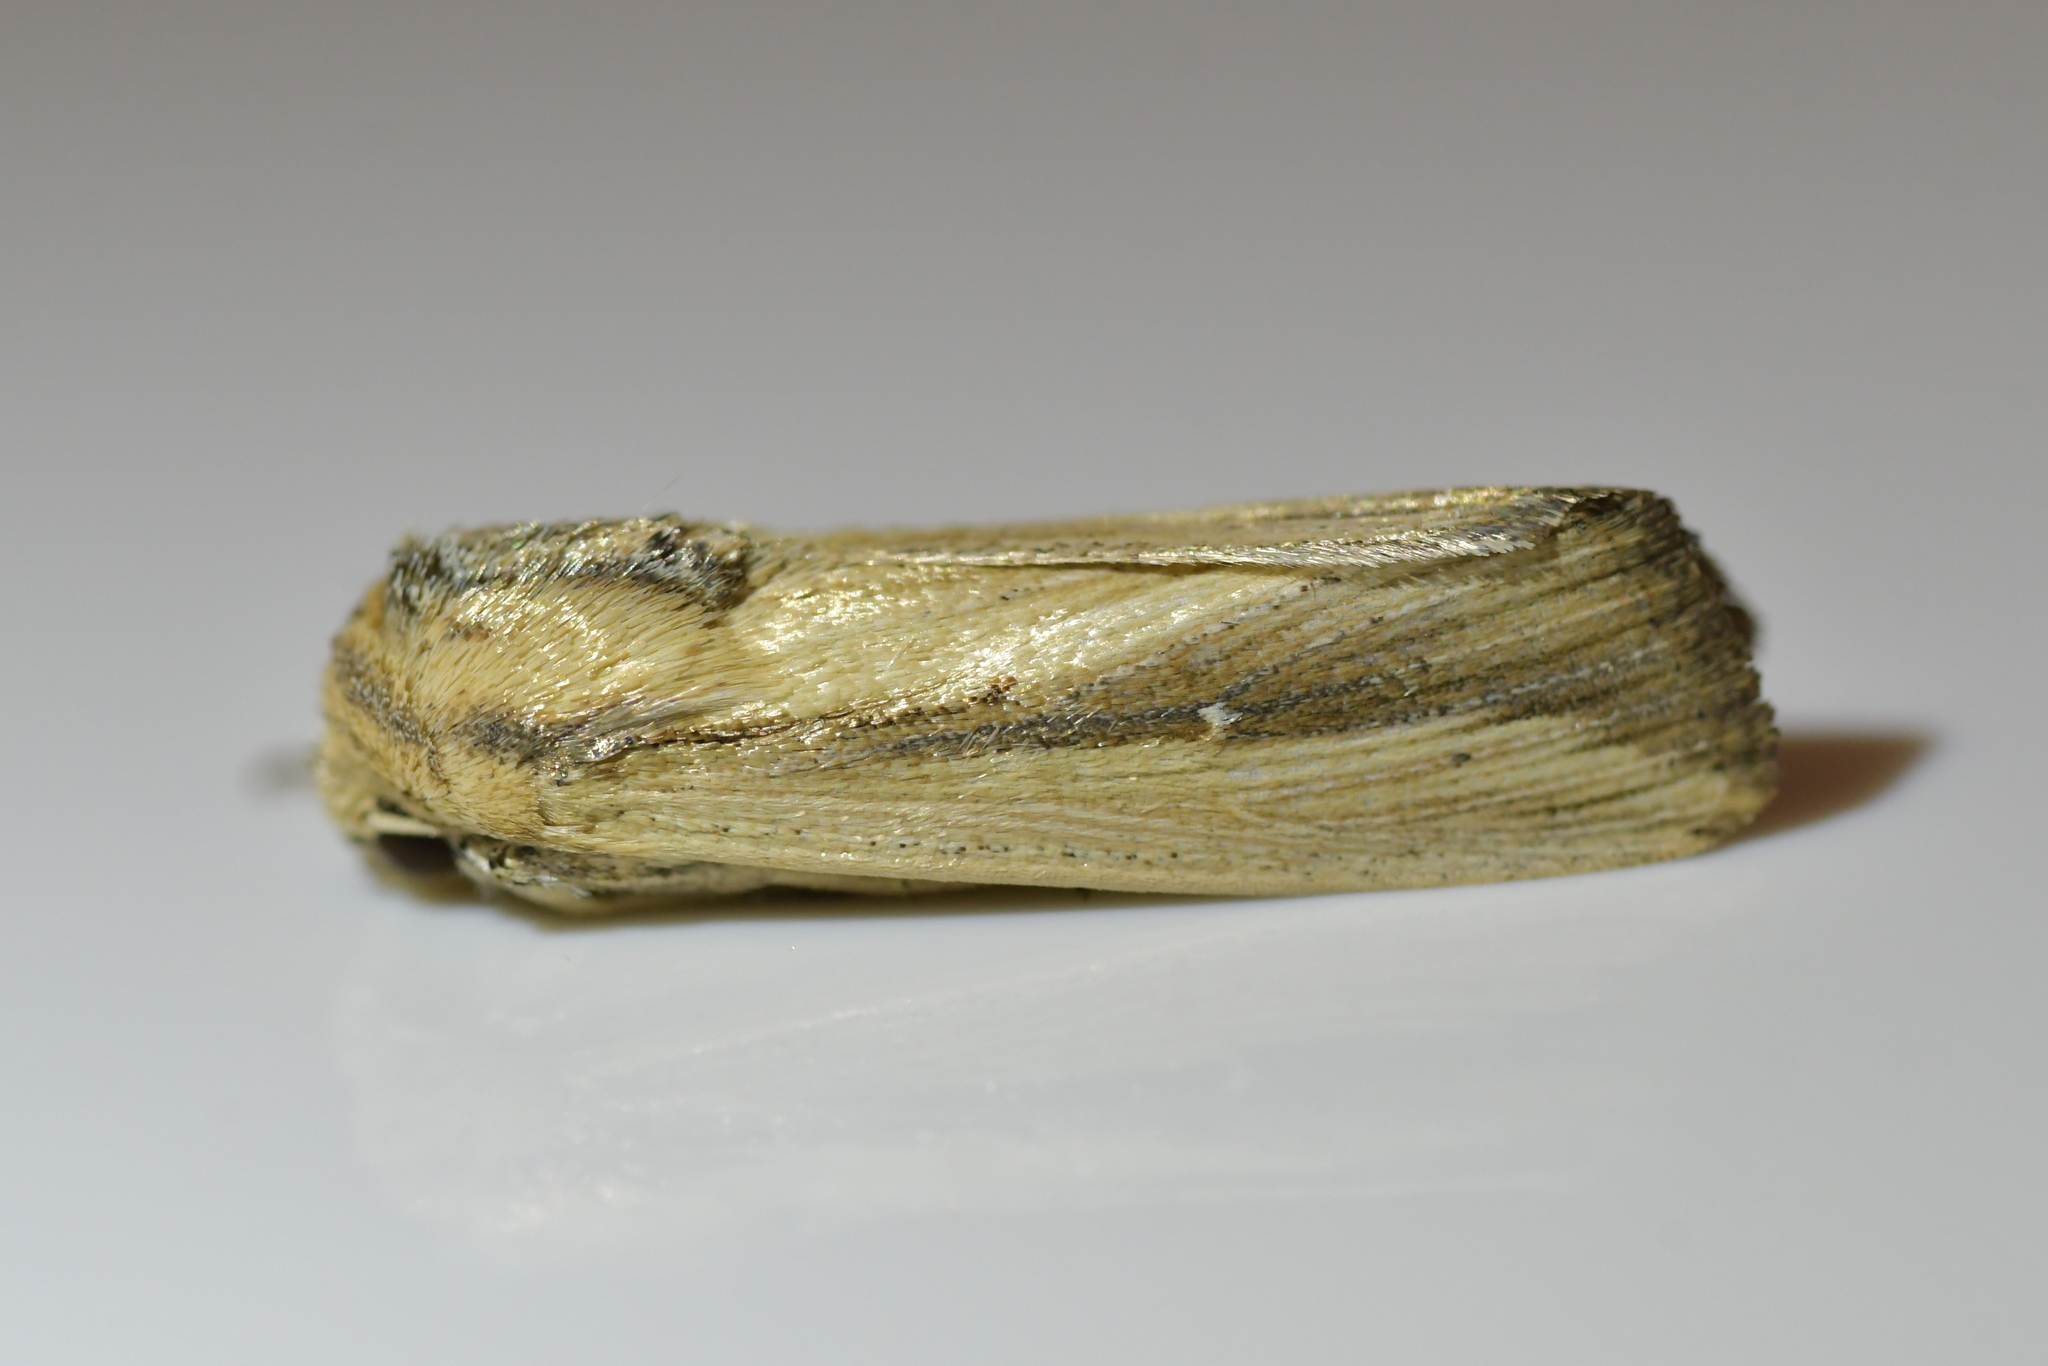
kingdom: Animalia
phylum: Arthropoda
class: Insecta
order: Lepidoptera
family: Noctuidae
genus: Leucania
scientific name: Leucania stenographa
